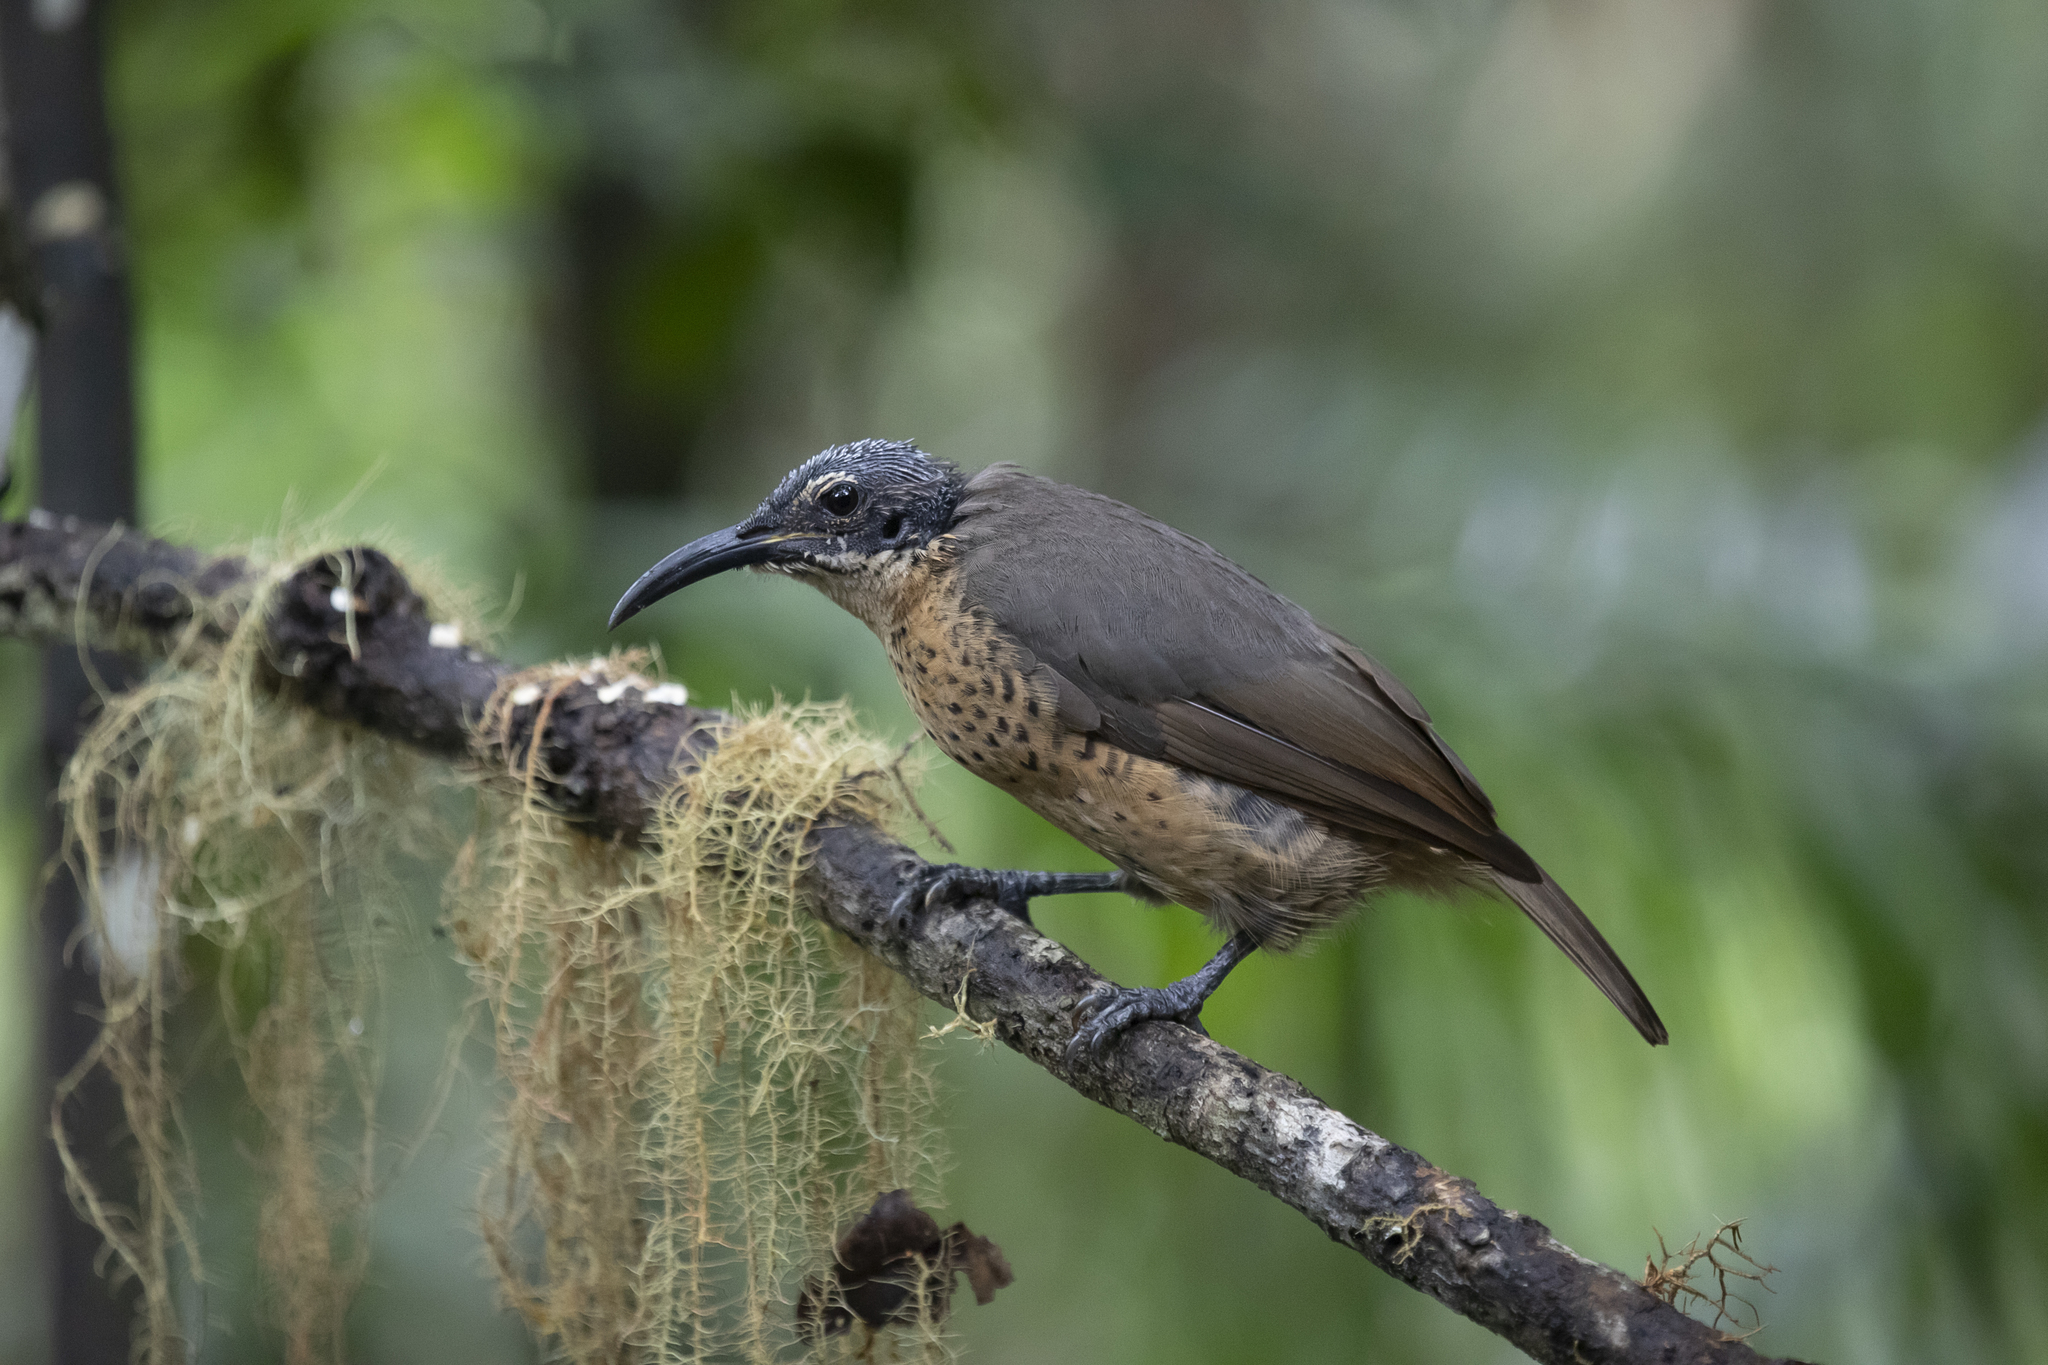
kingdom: Animalia
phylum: Chordata
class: Aves
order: Passeriformes
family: Paradisaeidae
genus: Ptiloris
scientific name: Ptiloris victoriae
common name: Victoria's riflebird
